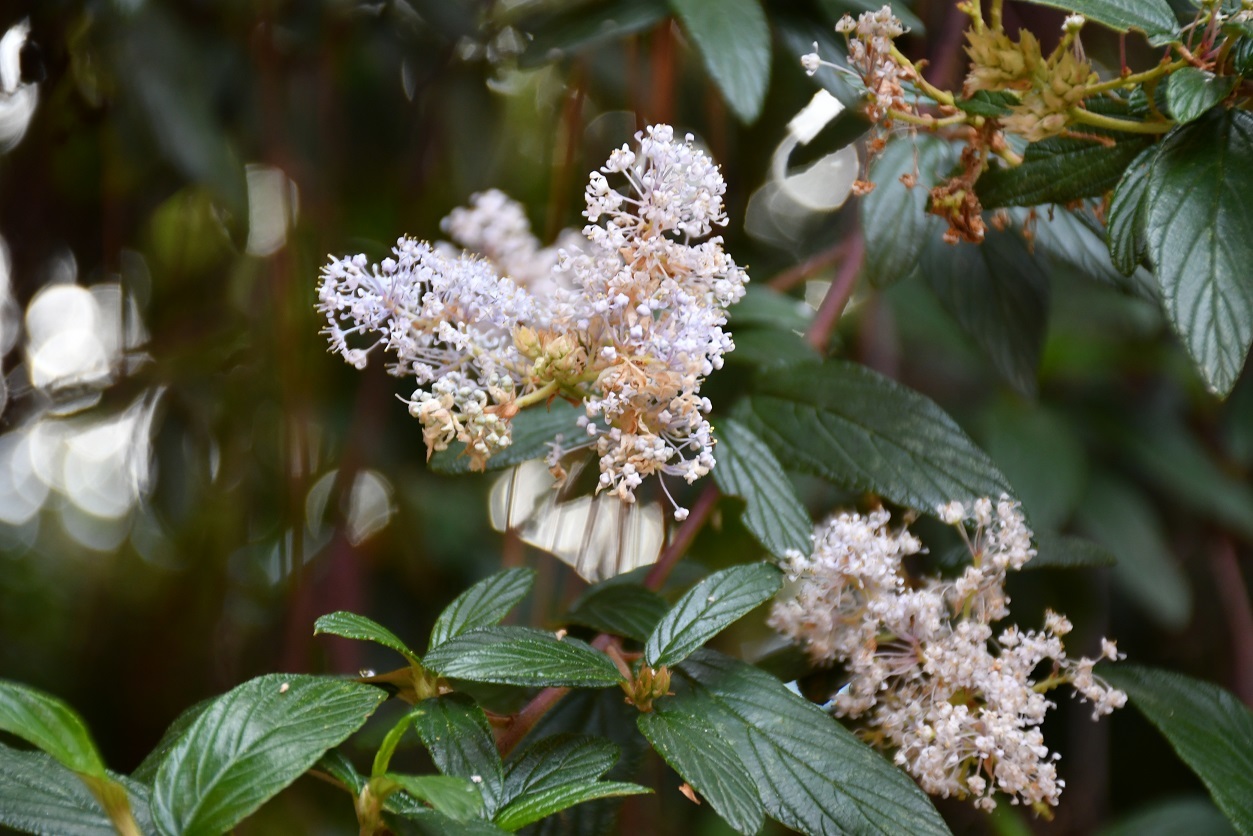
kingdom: Plantae
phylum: Tracheophyta
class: Magnoliopsida
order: Rosales
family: Rhamnaceae
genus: Ceanothus
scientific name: Ceanothus caeruleus
